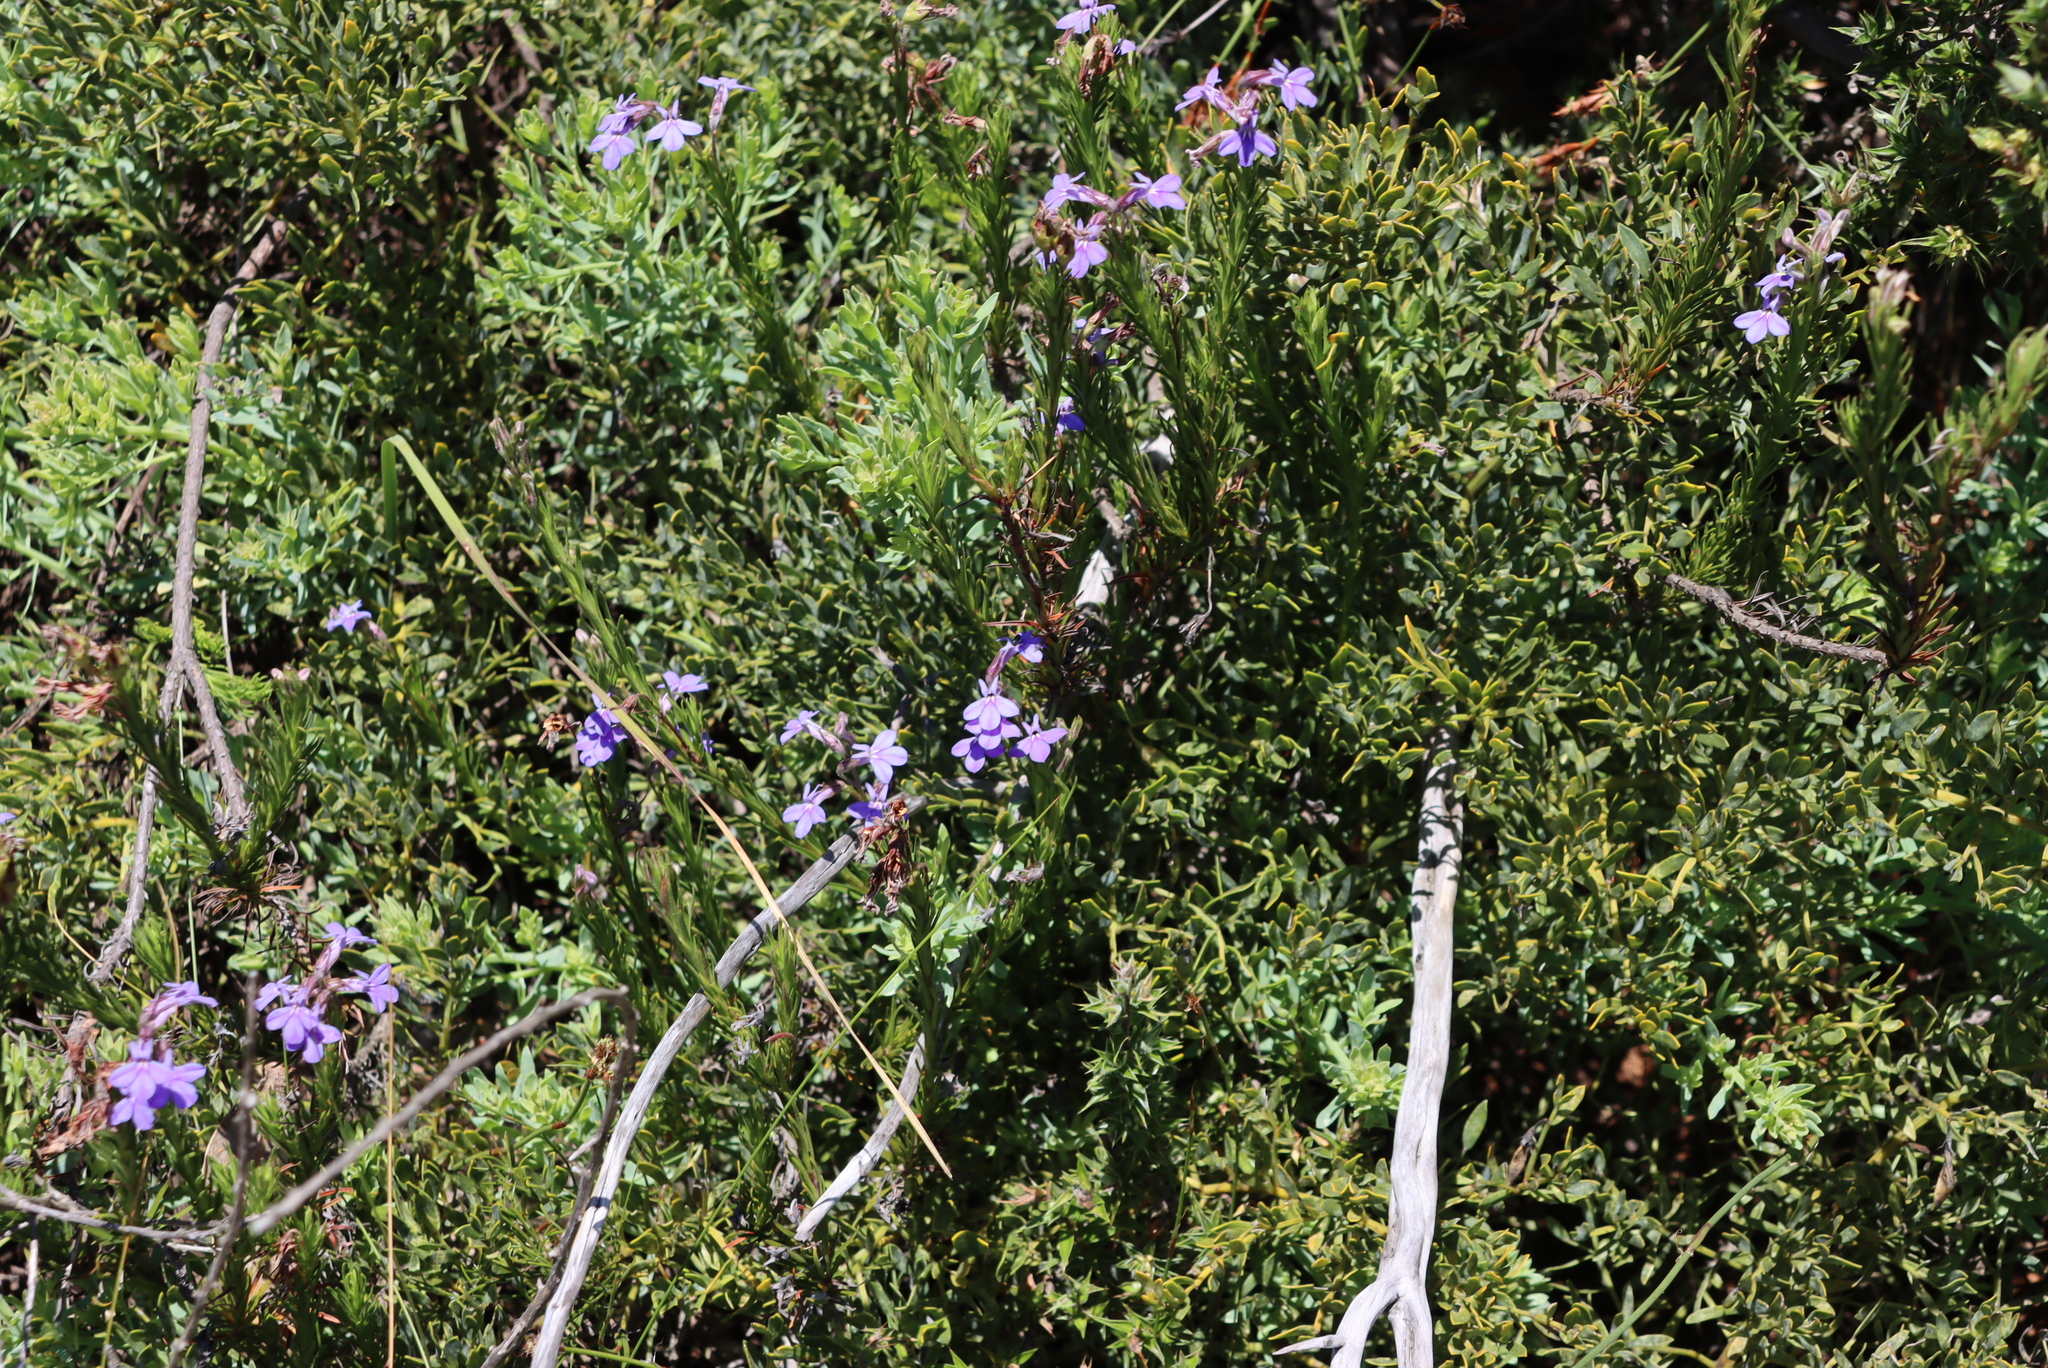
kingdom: Plantae
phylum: Tracheophyta
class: Magnoliopsida
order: Asterales
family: Campanulaceae
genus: Lobelia
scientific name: Lobelia pinifolia
